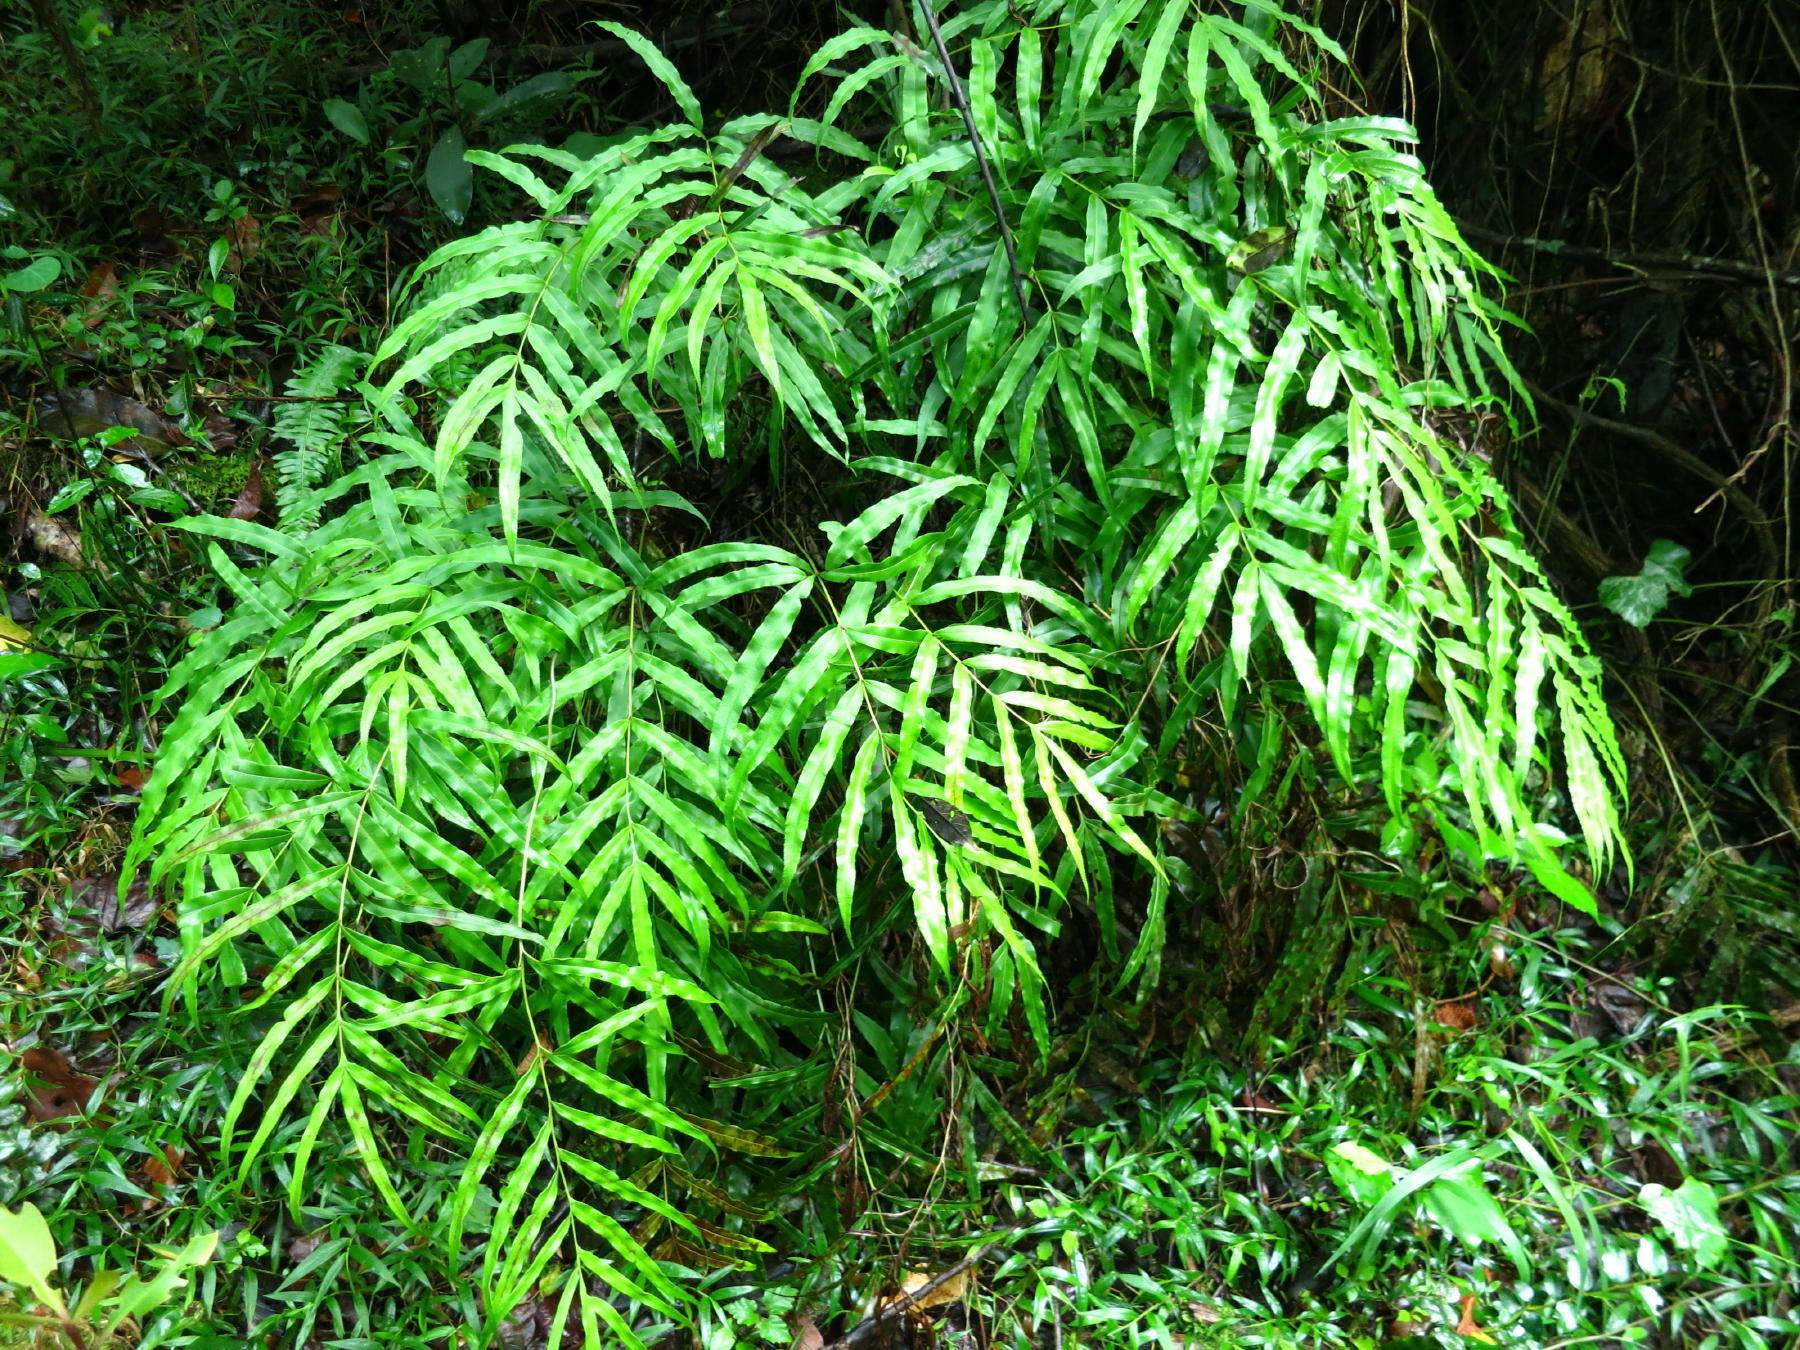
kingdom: Plantae
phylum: Tracheophyta
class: Polypodiopsida
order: Polypodiales
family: Pteridaceae
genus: Pteris
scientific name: Pteris cretica
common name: Ribbon fern
